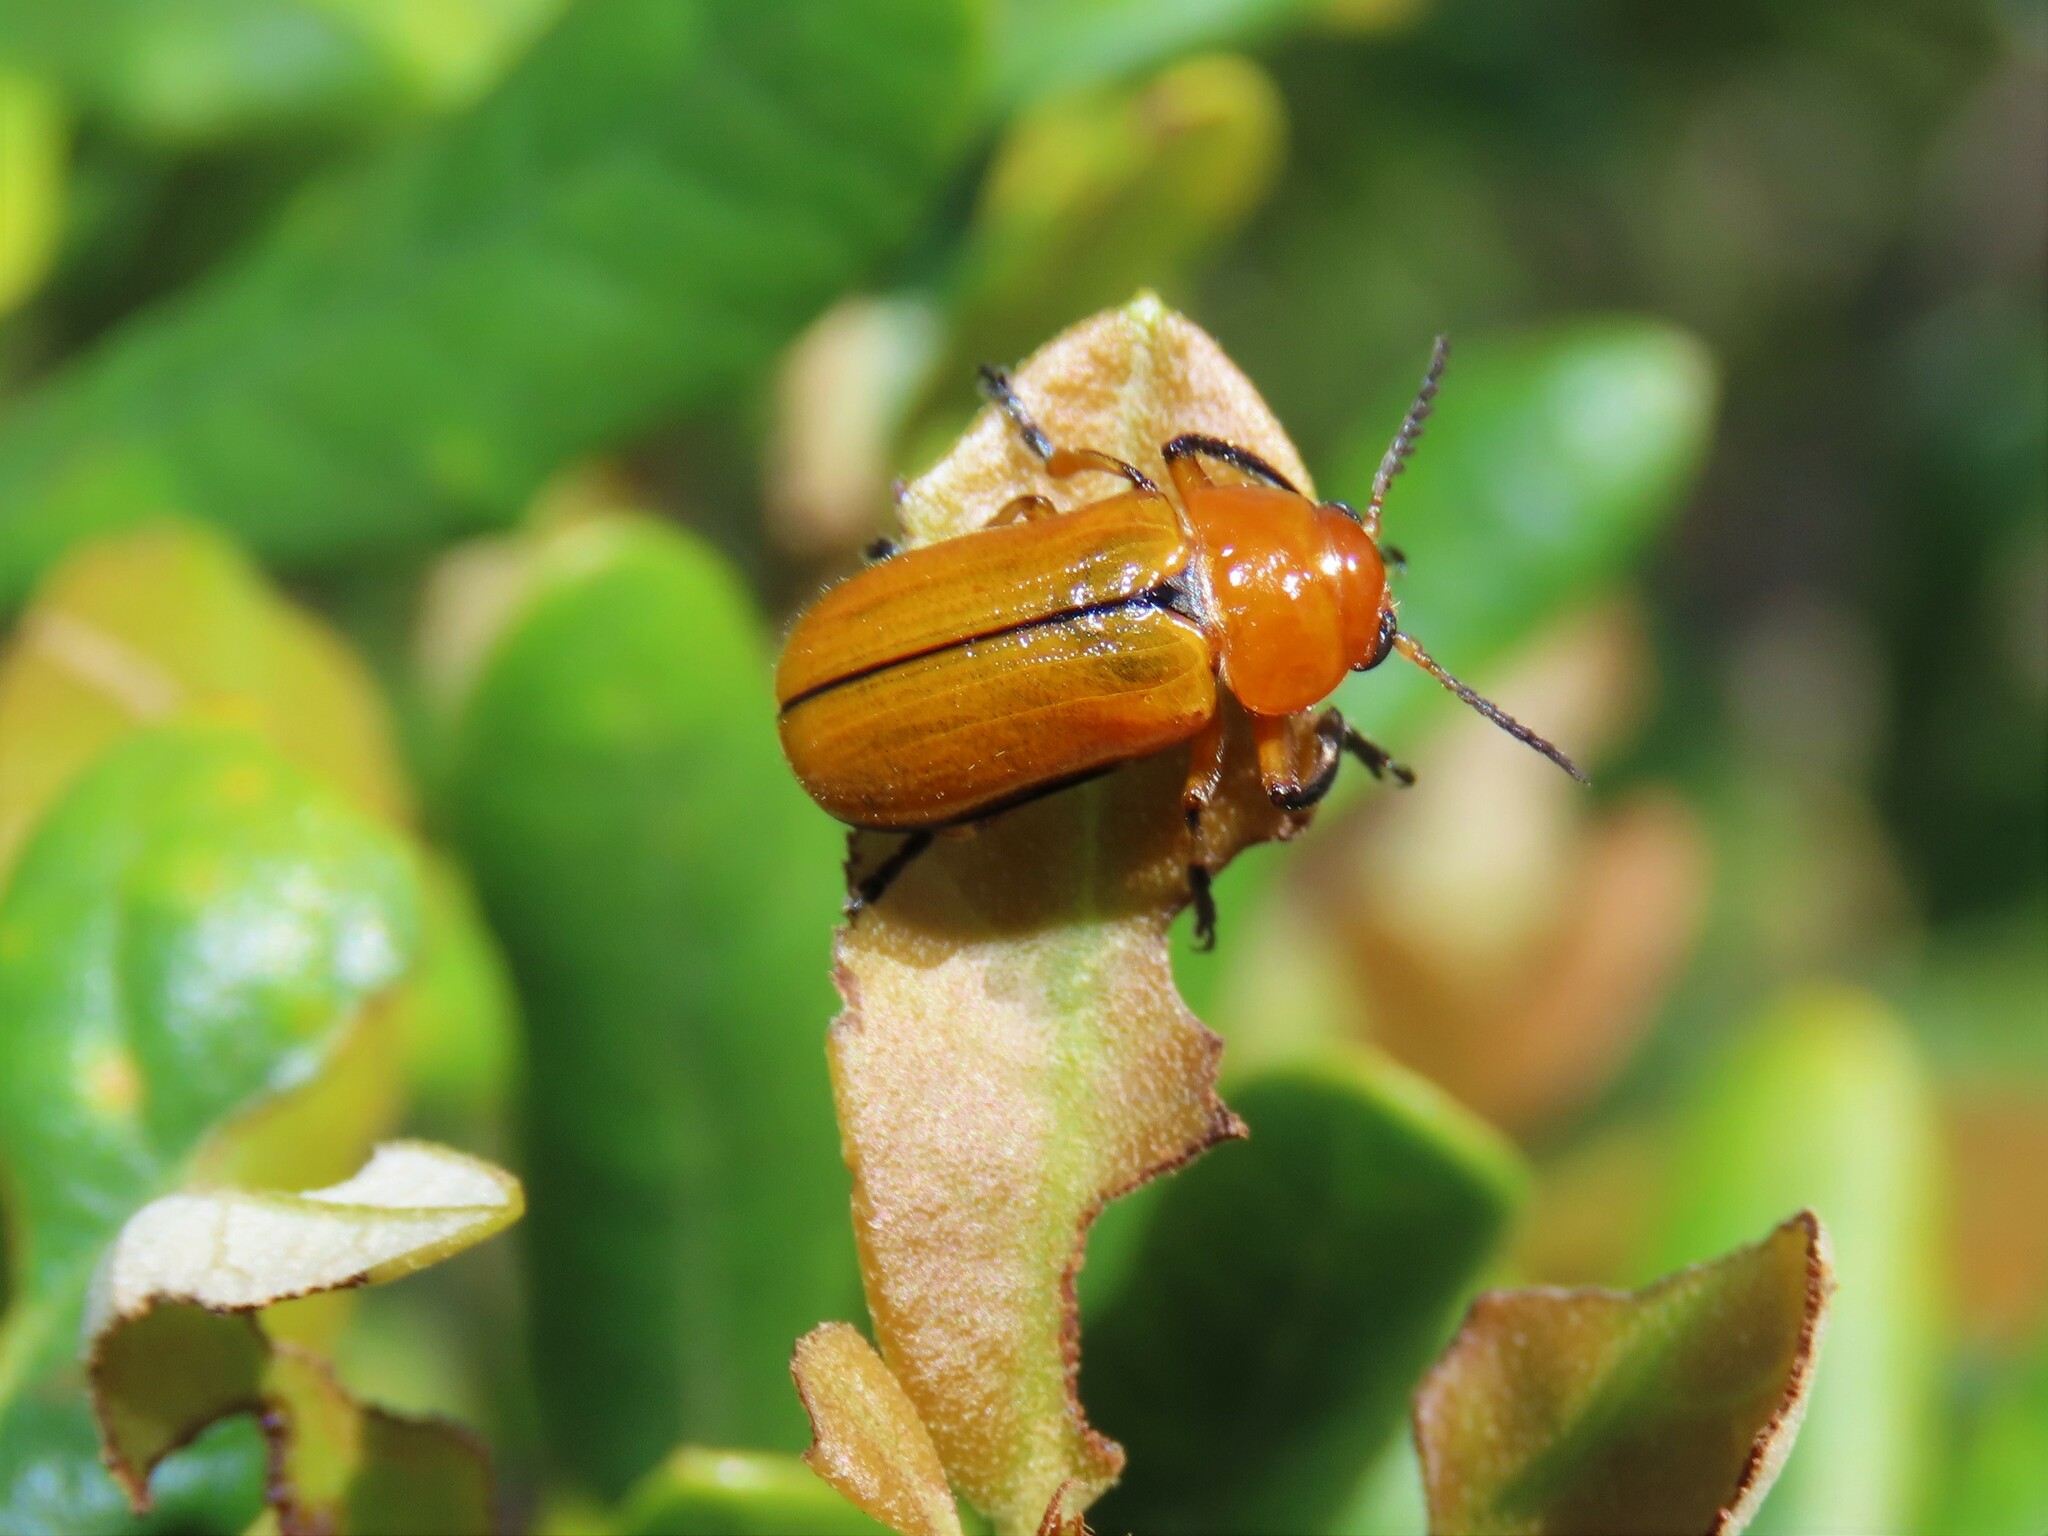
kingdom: Animalia
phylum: Arthropoda
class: Insecta
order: Coleoptera
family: Chrysomelidae
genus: Anomoea
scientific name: Anomoea laticlavia
